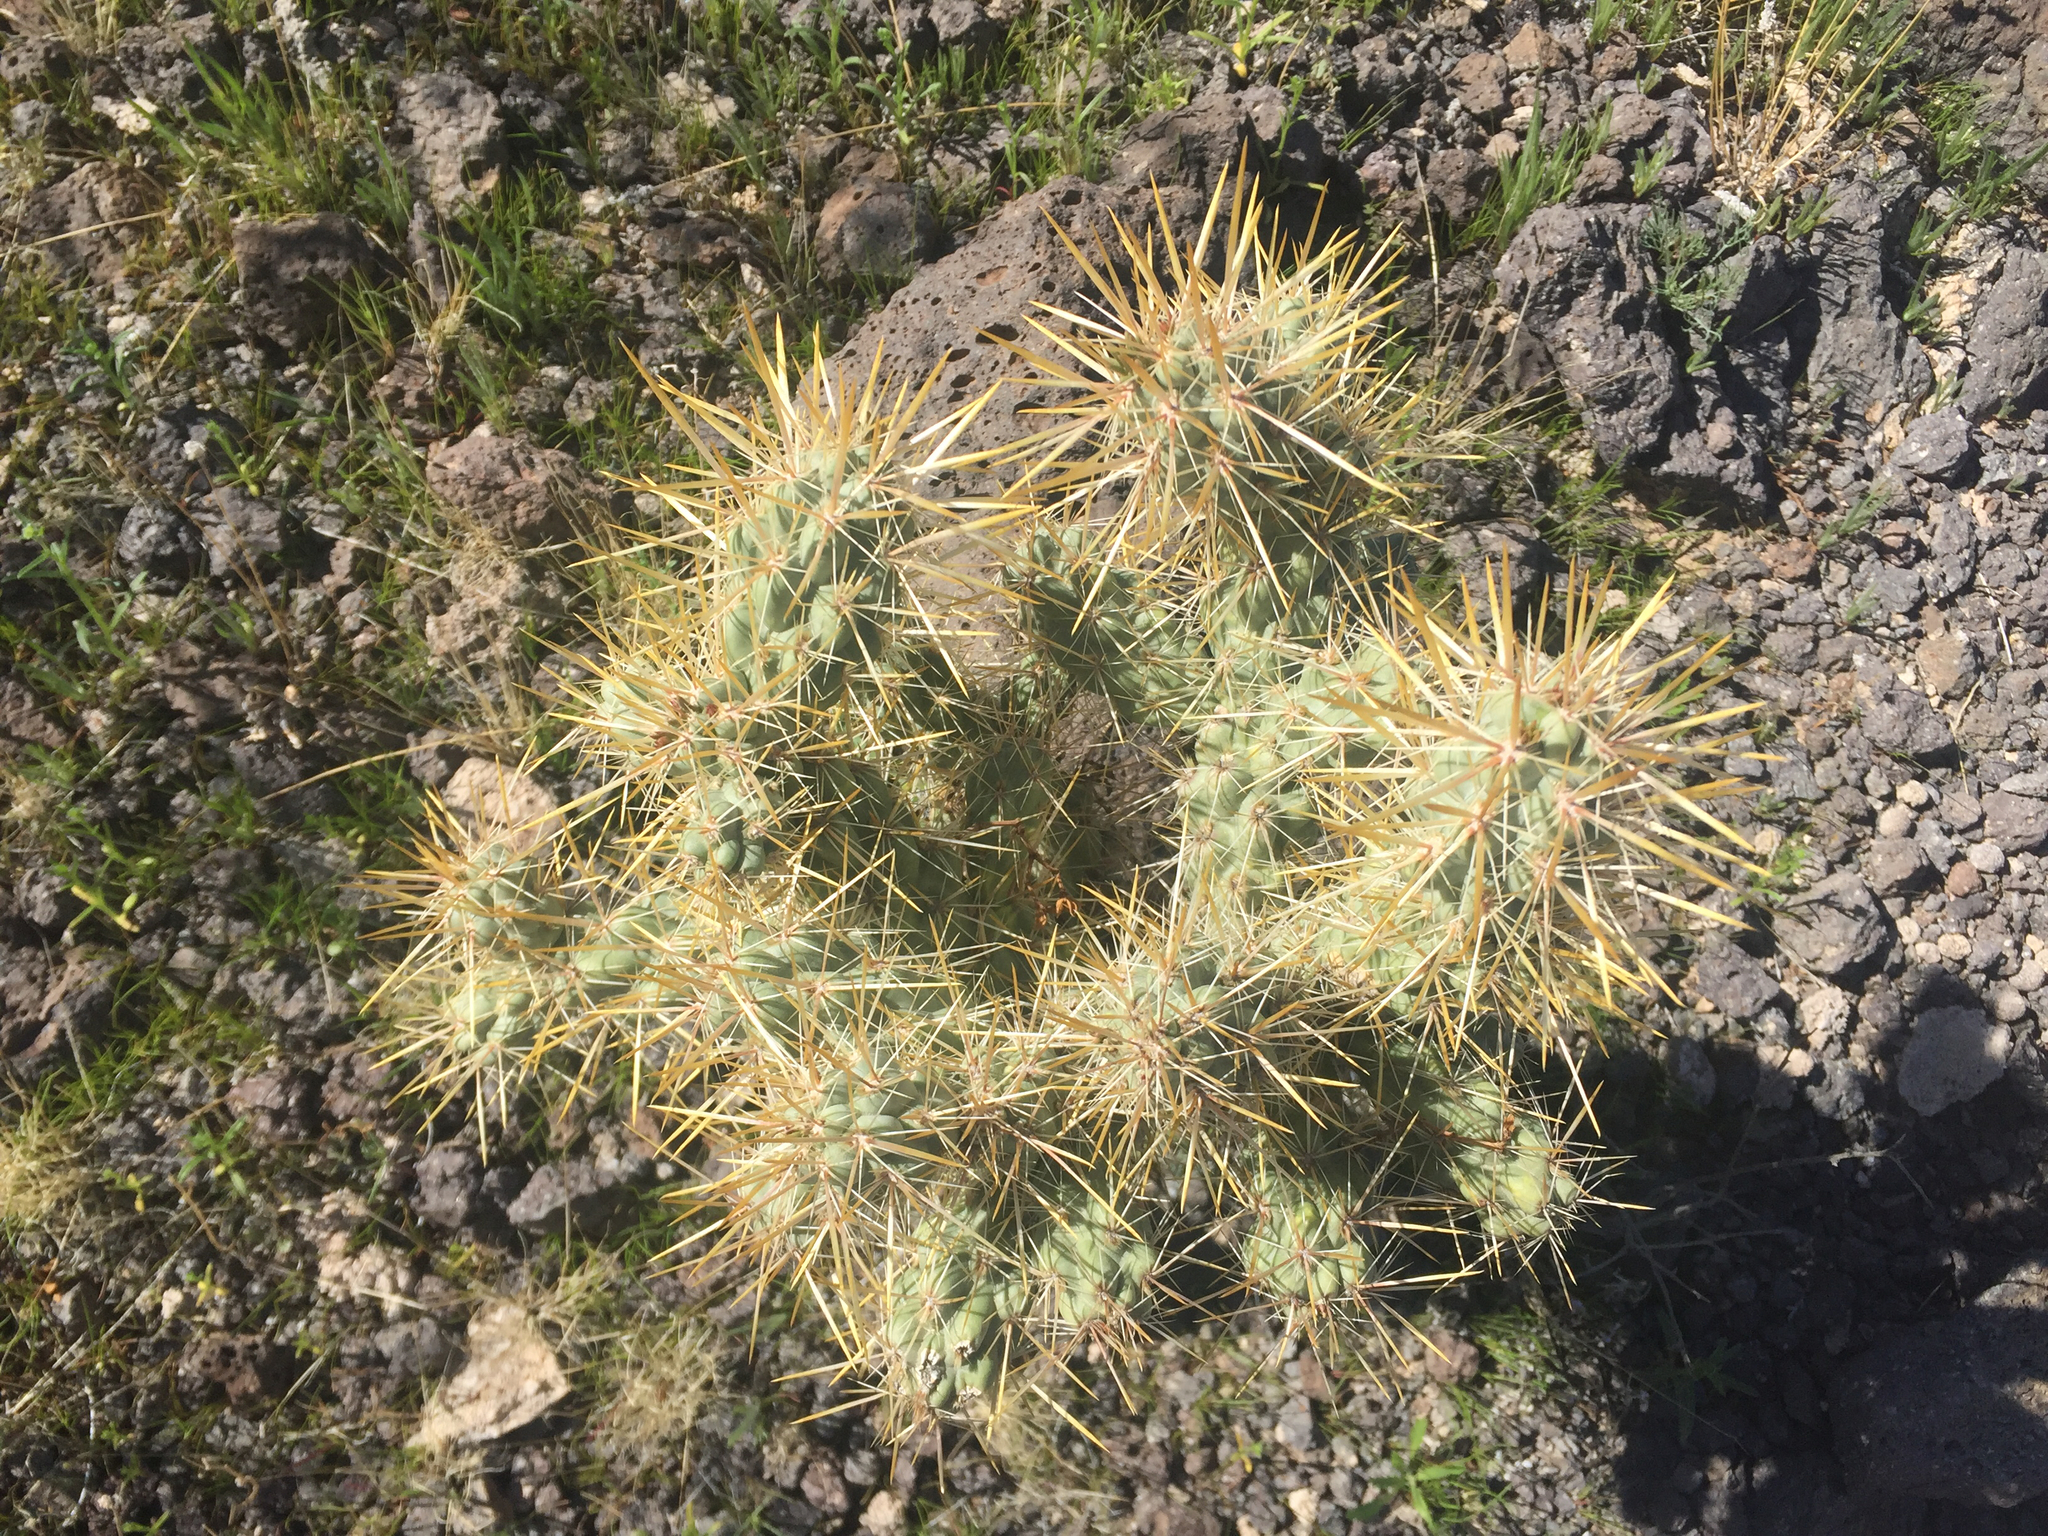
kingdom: Plantae
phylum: Tracheophyta
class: Magnoliopsida
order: Caryophyllales
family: Cactaceae
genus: Cylindropuntia
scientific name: Cylindropuntia echinocarpa
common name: Ground cholla
